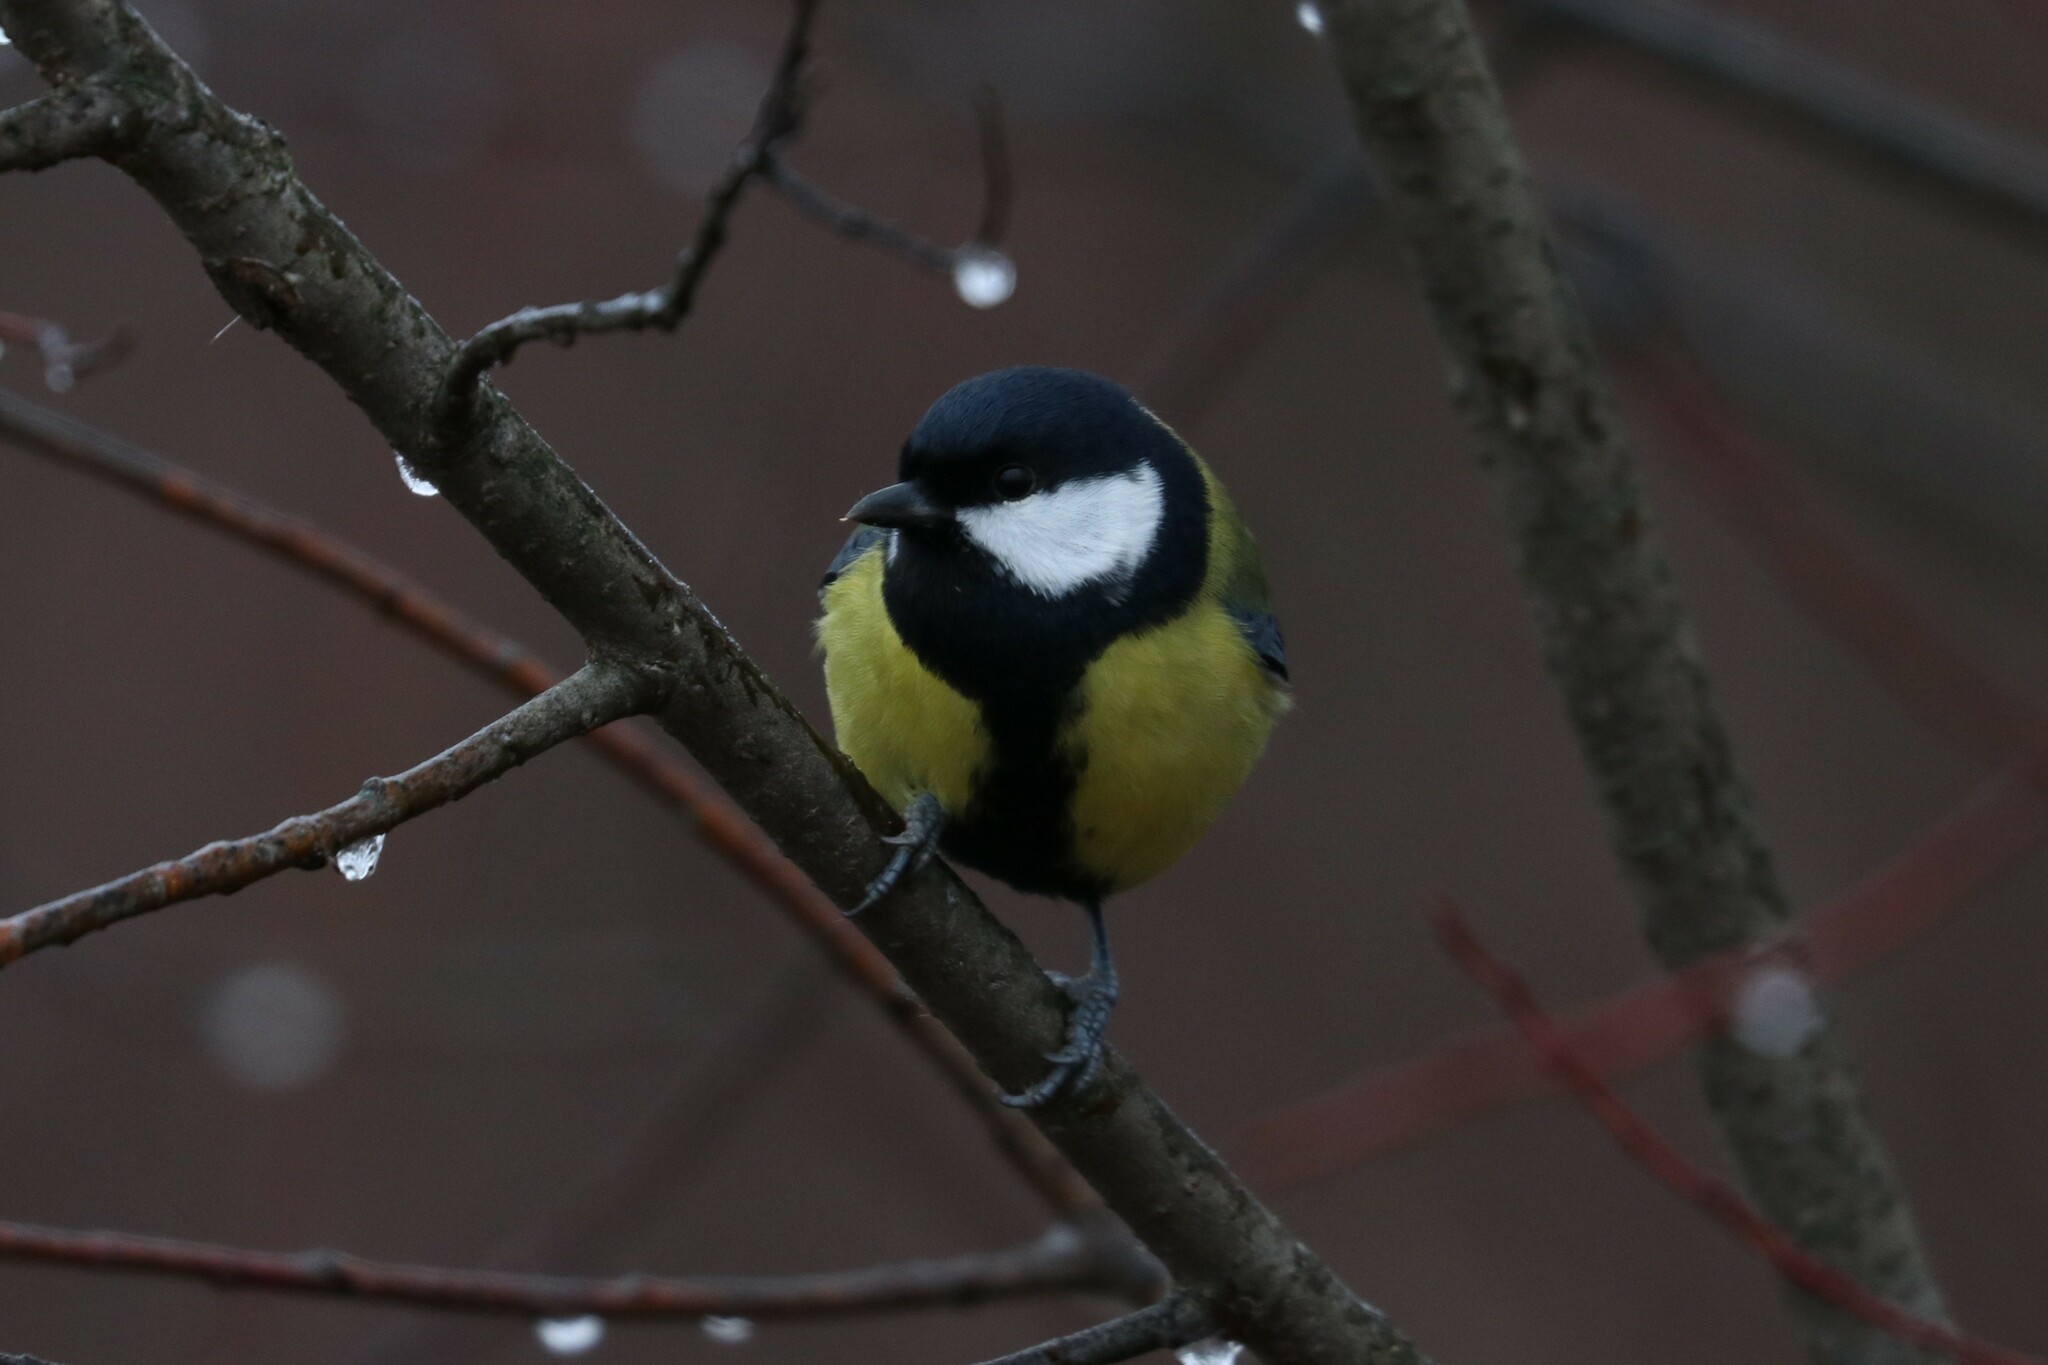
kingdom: Animalia
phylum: Chordata
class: Aves
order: Passeriformes
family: Paridae
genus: Parus
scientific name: Parus major
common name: Great tit
